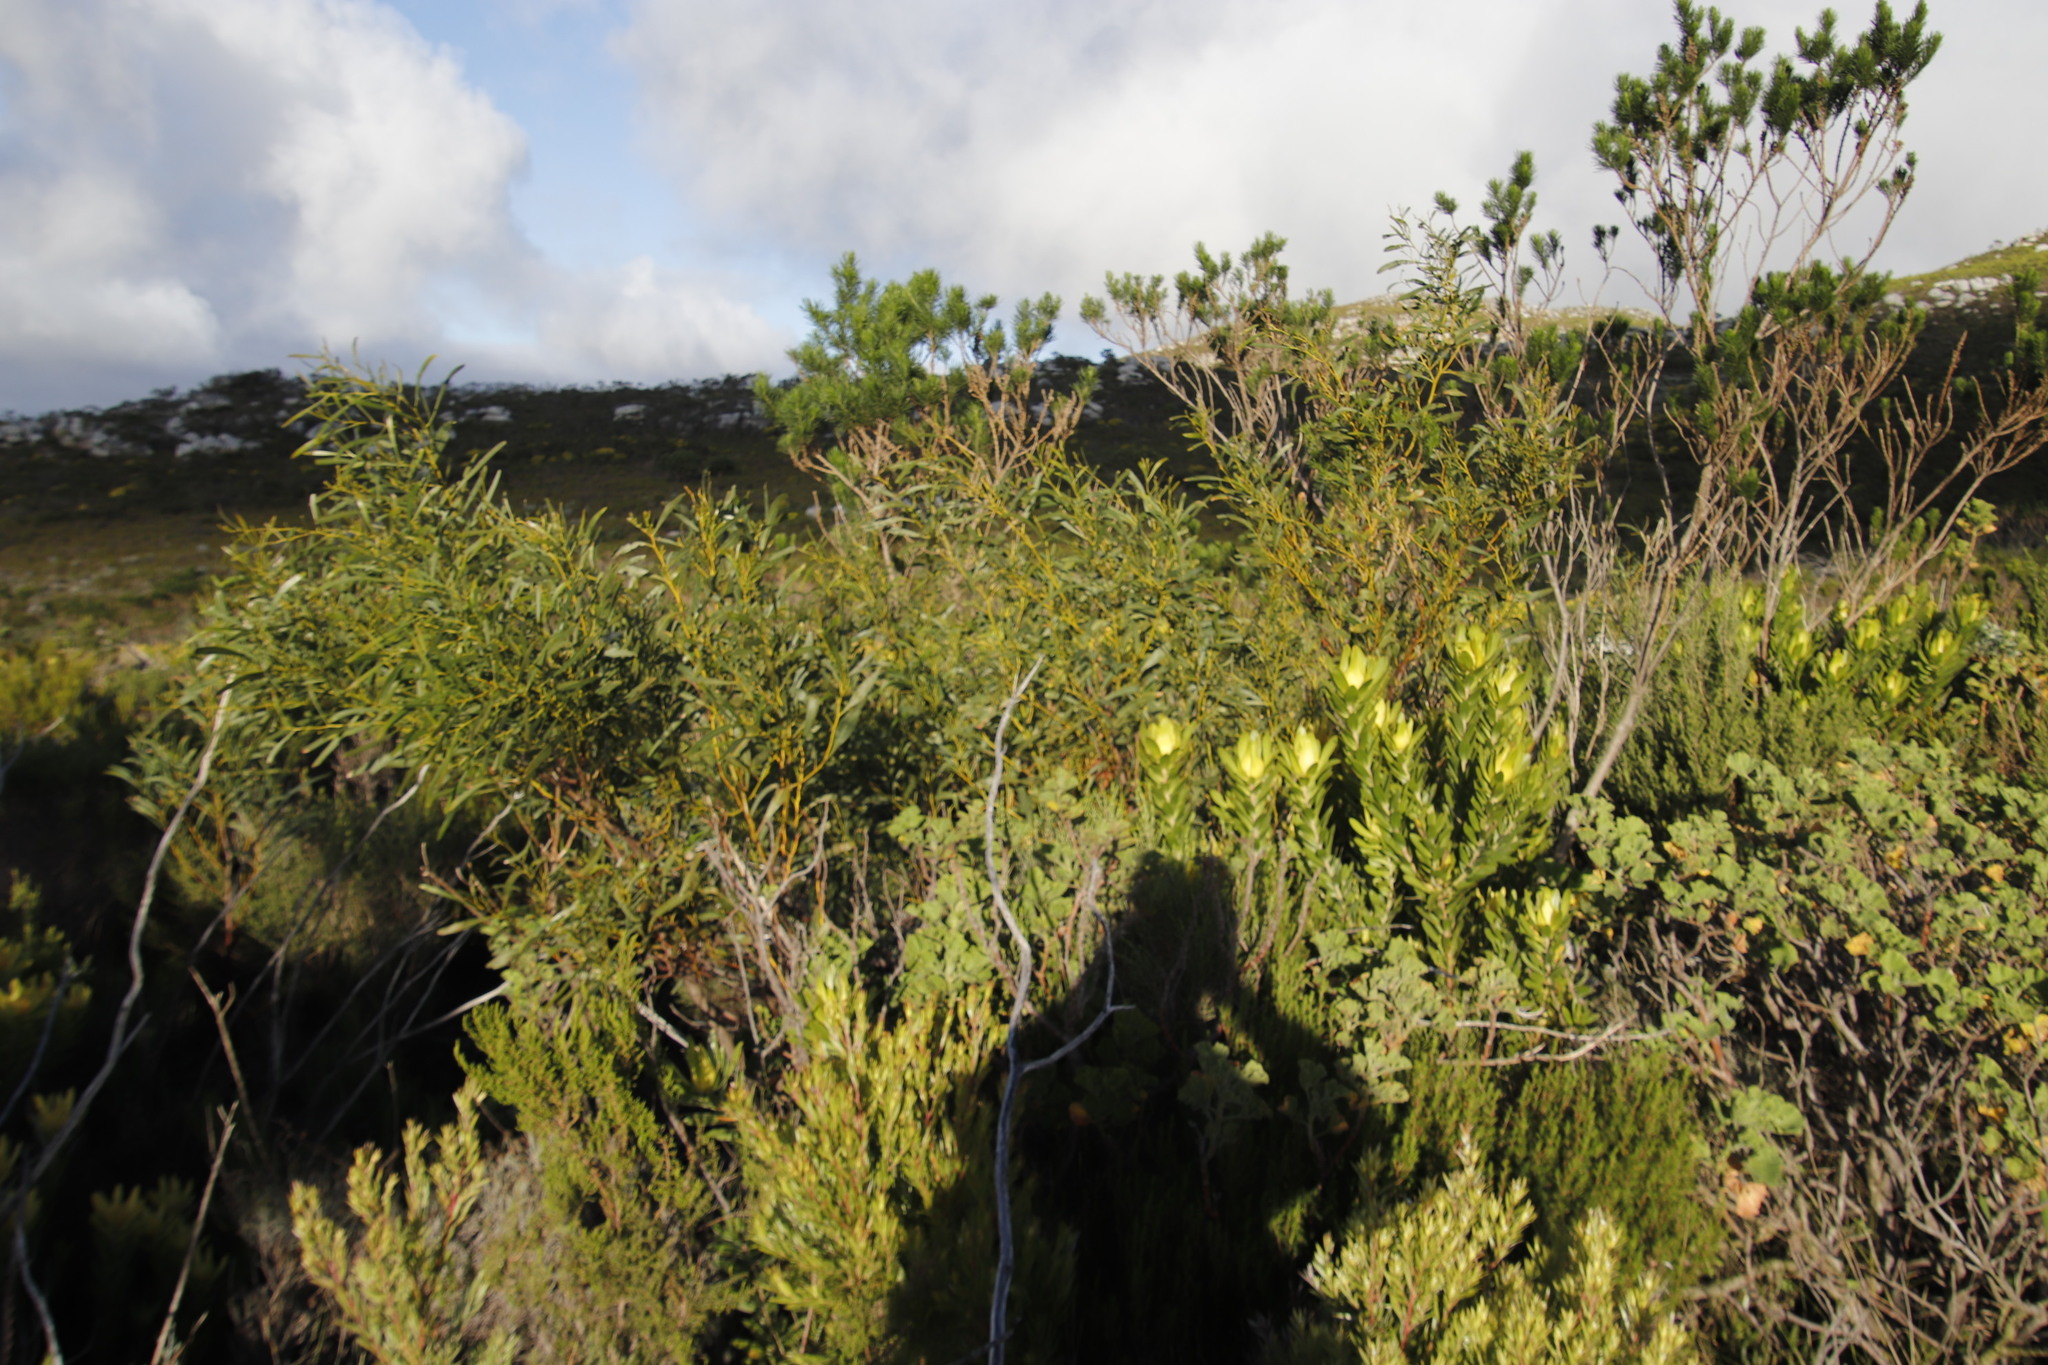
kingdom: Plantae
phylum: Tracheophyta
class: Magnoliopsida
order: Fabales
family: Fabaceae
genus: Acacia
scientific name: Acacia saligna
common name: Orange wattle
